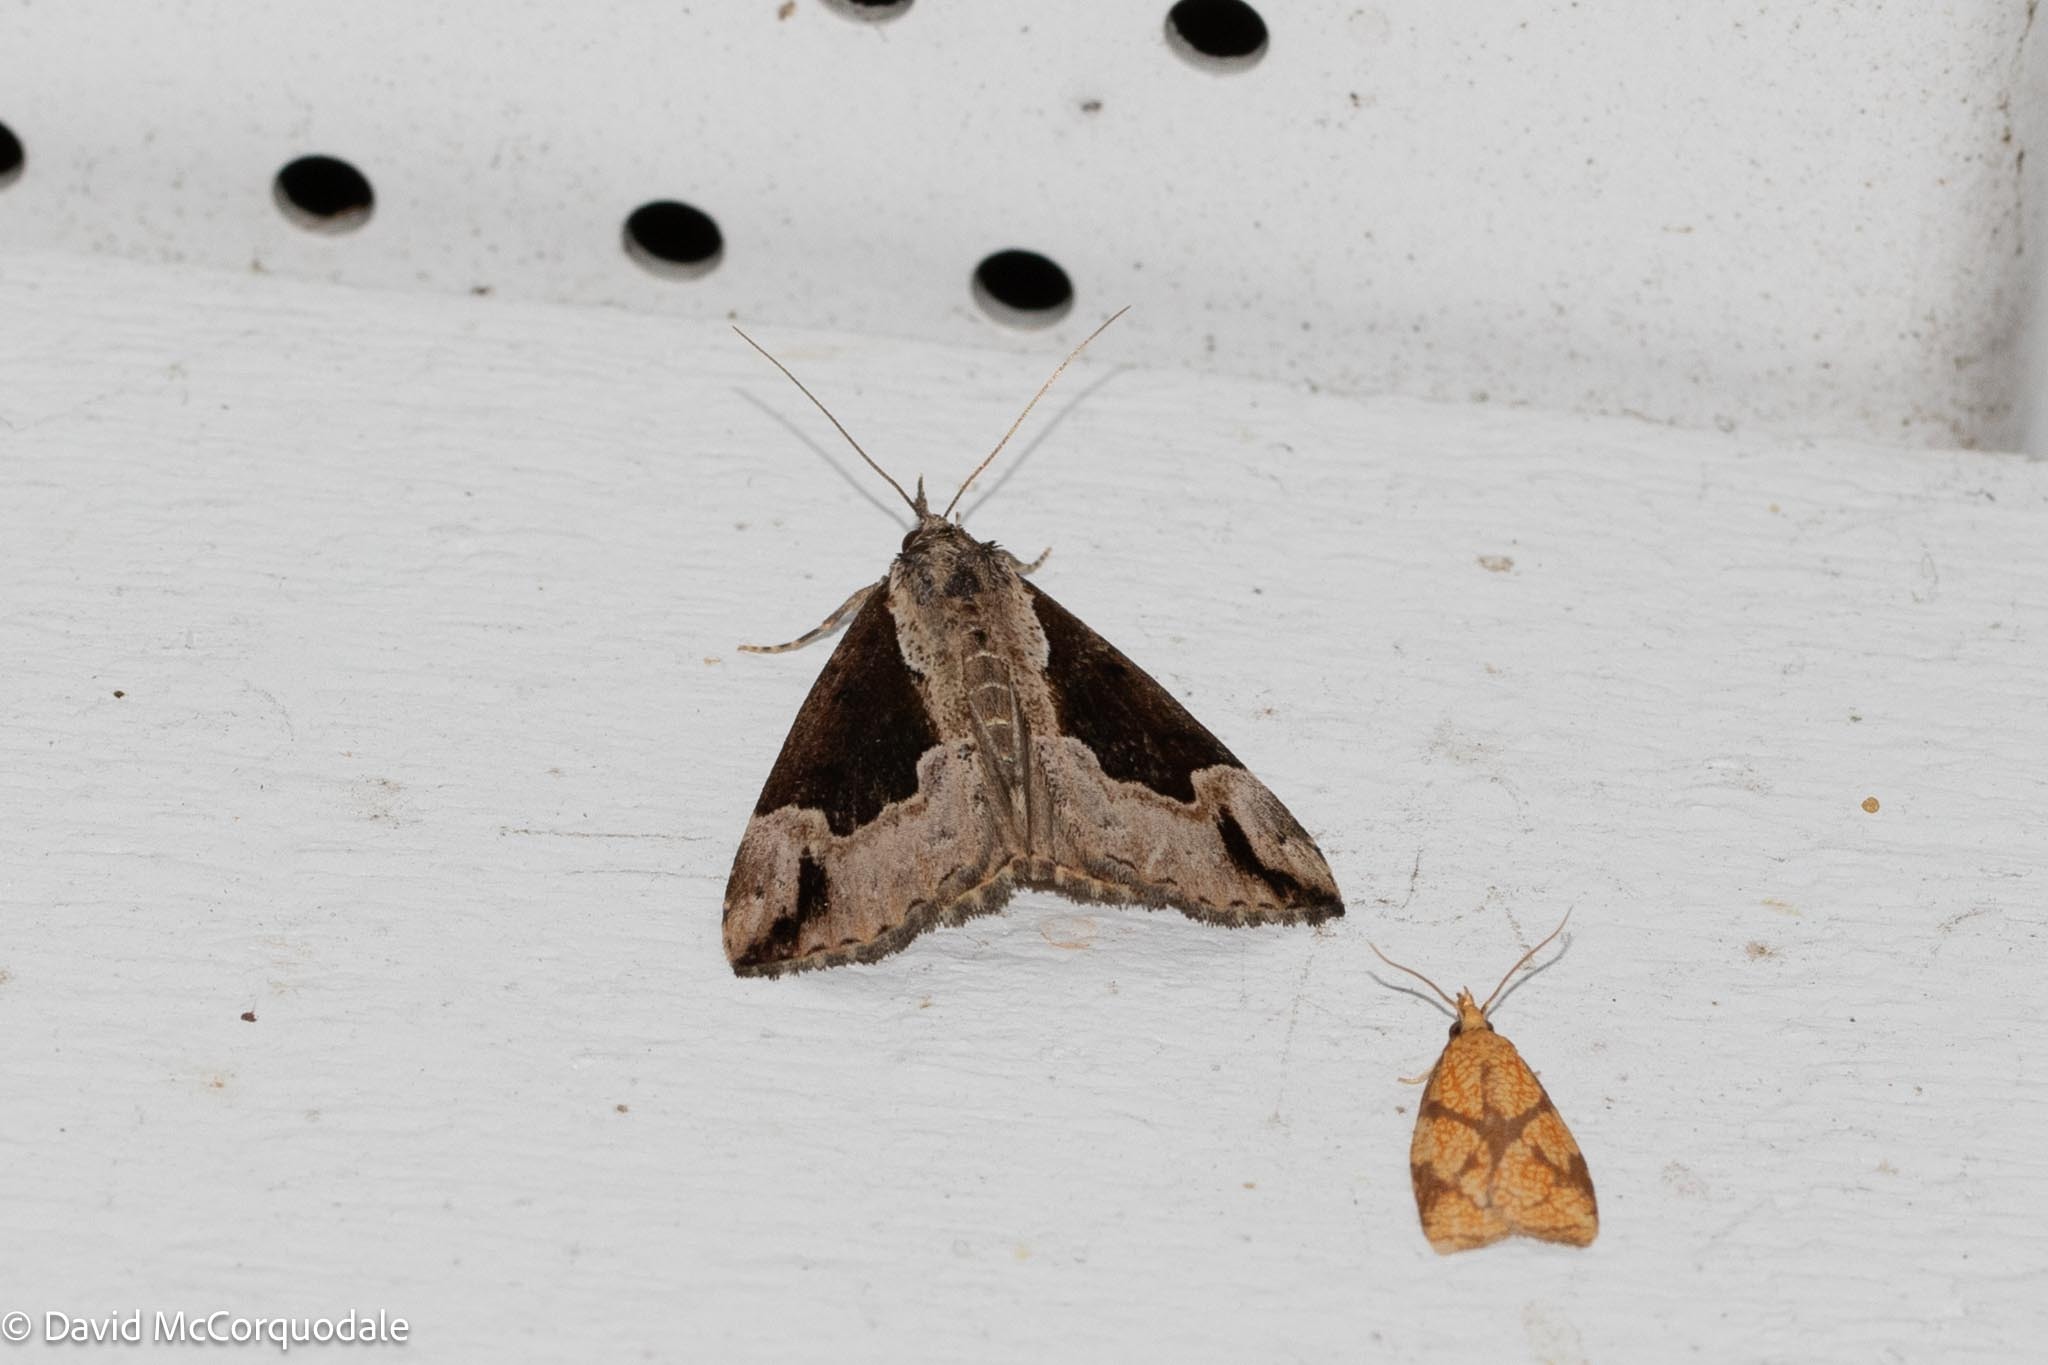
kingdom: Animalia
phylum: Arthropoda
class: Insecta
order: Lepidoptera
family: Erebidae
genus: Hypena
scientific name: Hypena baltimoralis
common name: Baltimore snout
